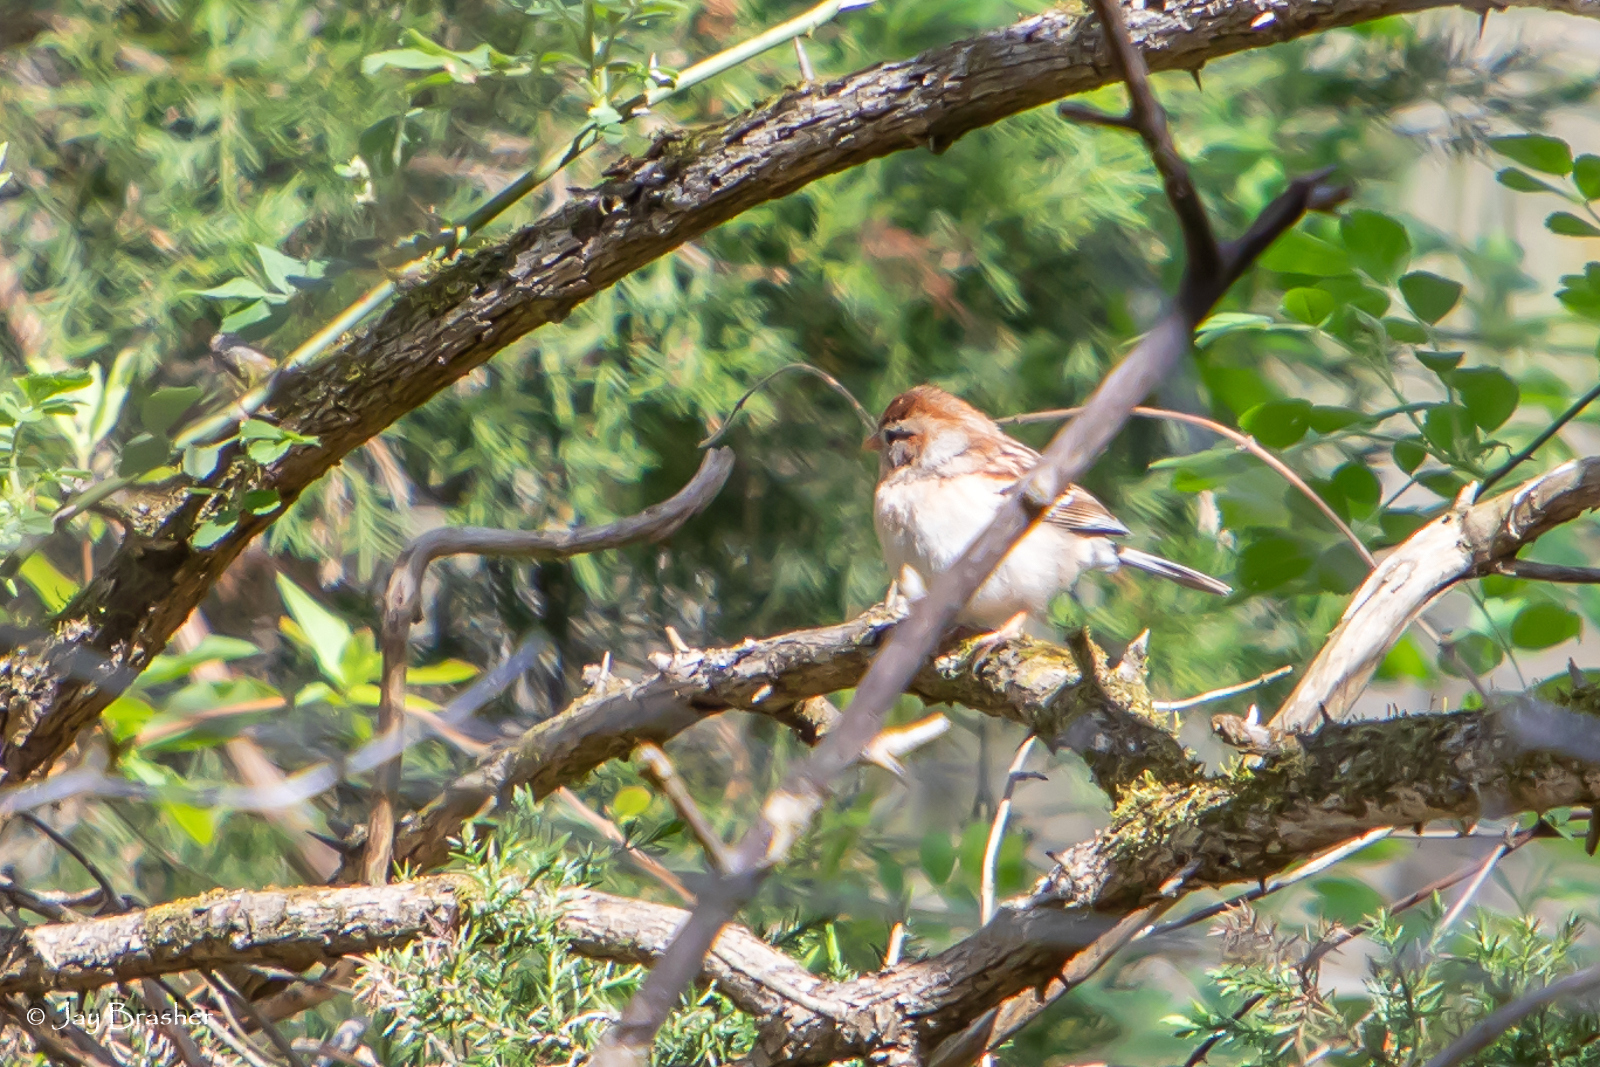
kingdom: Animalia
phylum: Chordata
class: Aves
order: Passeriformes
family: Passerellidae
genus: Spizella
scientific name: Spizella pusilla
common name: Field sparrow
